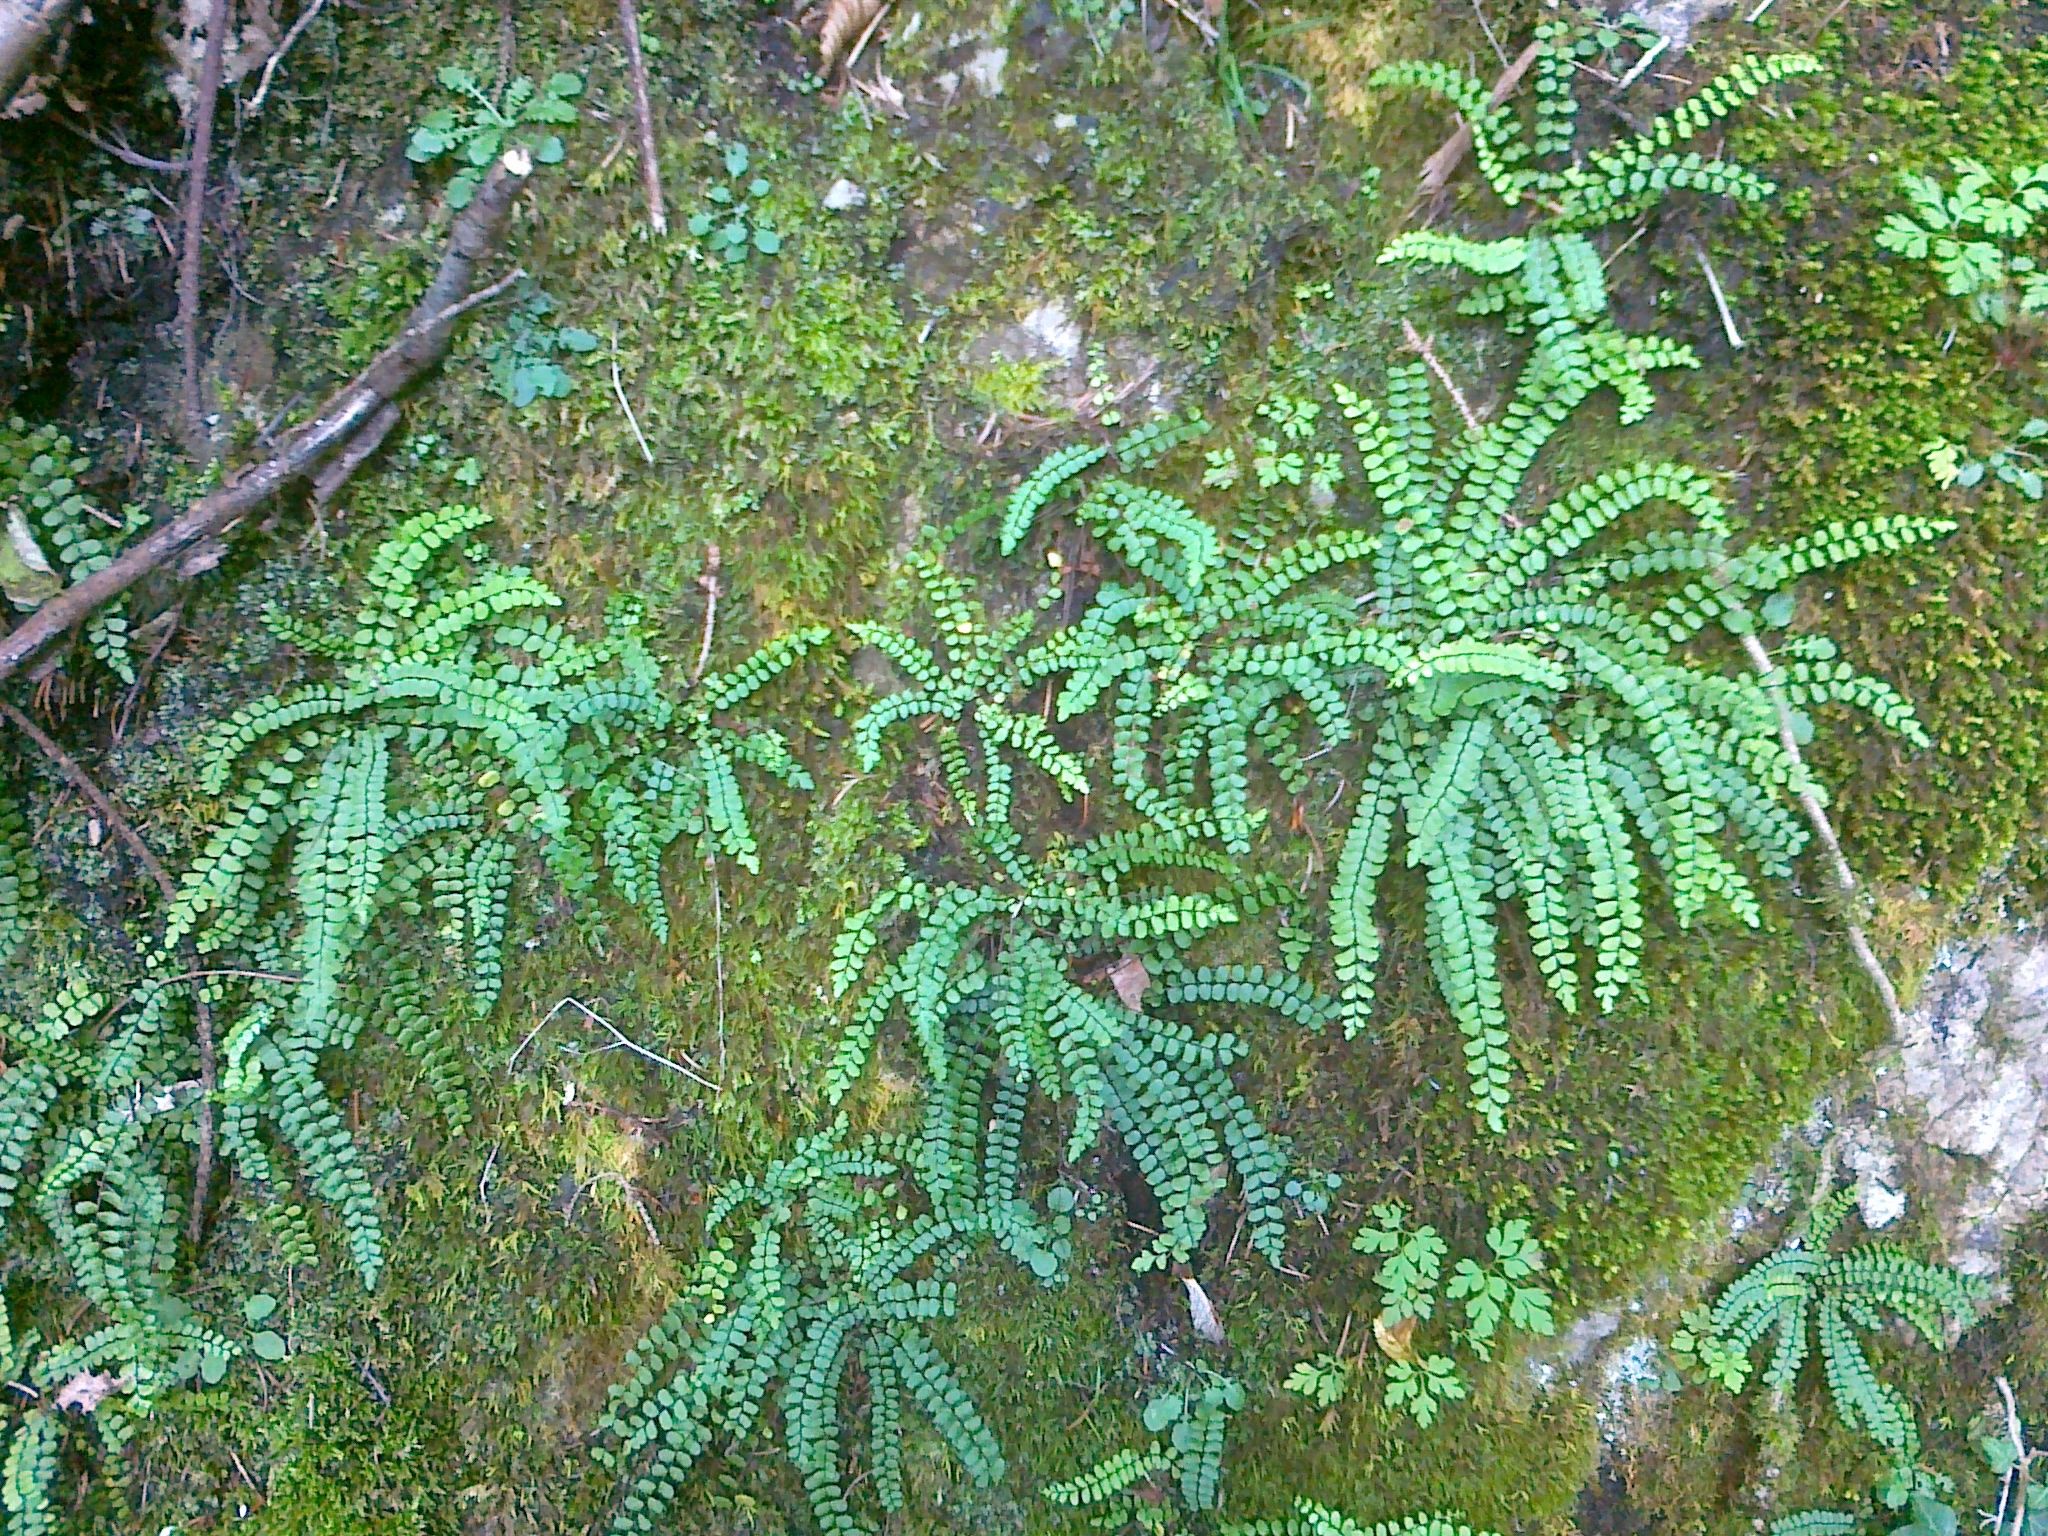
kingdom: Plantae
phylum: Tracheophyta
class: Polypodiopsida
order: Polypodiales
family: Aspleniaceae
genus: Asplenium
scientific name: Asplenium quadrivalens
